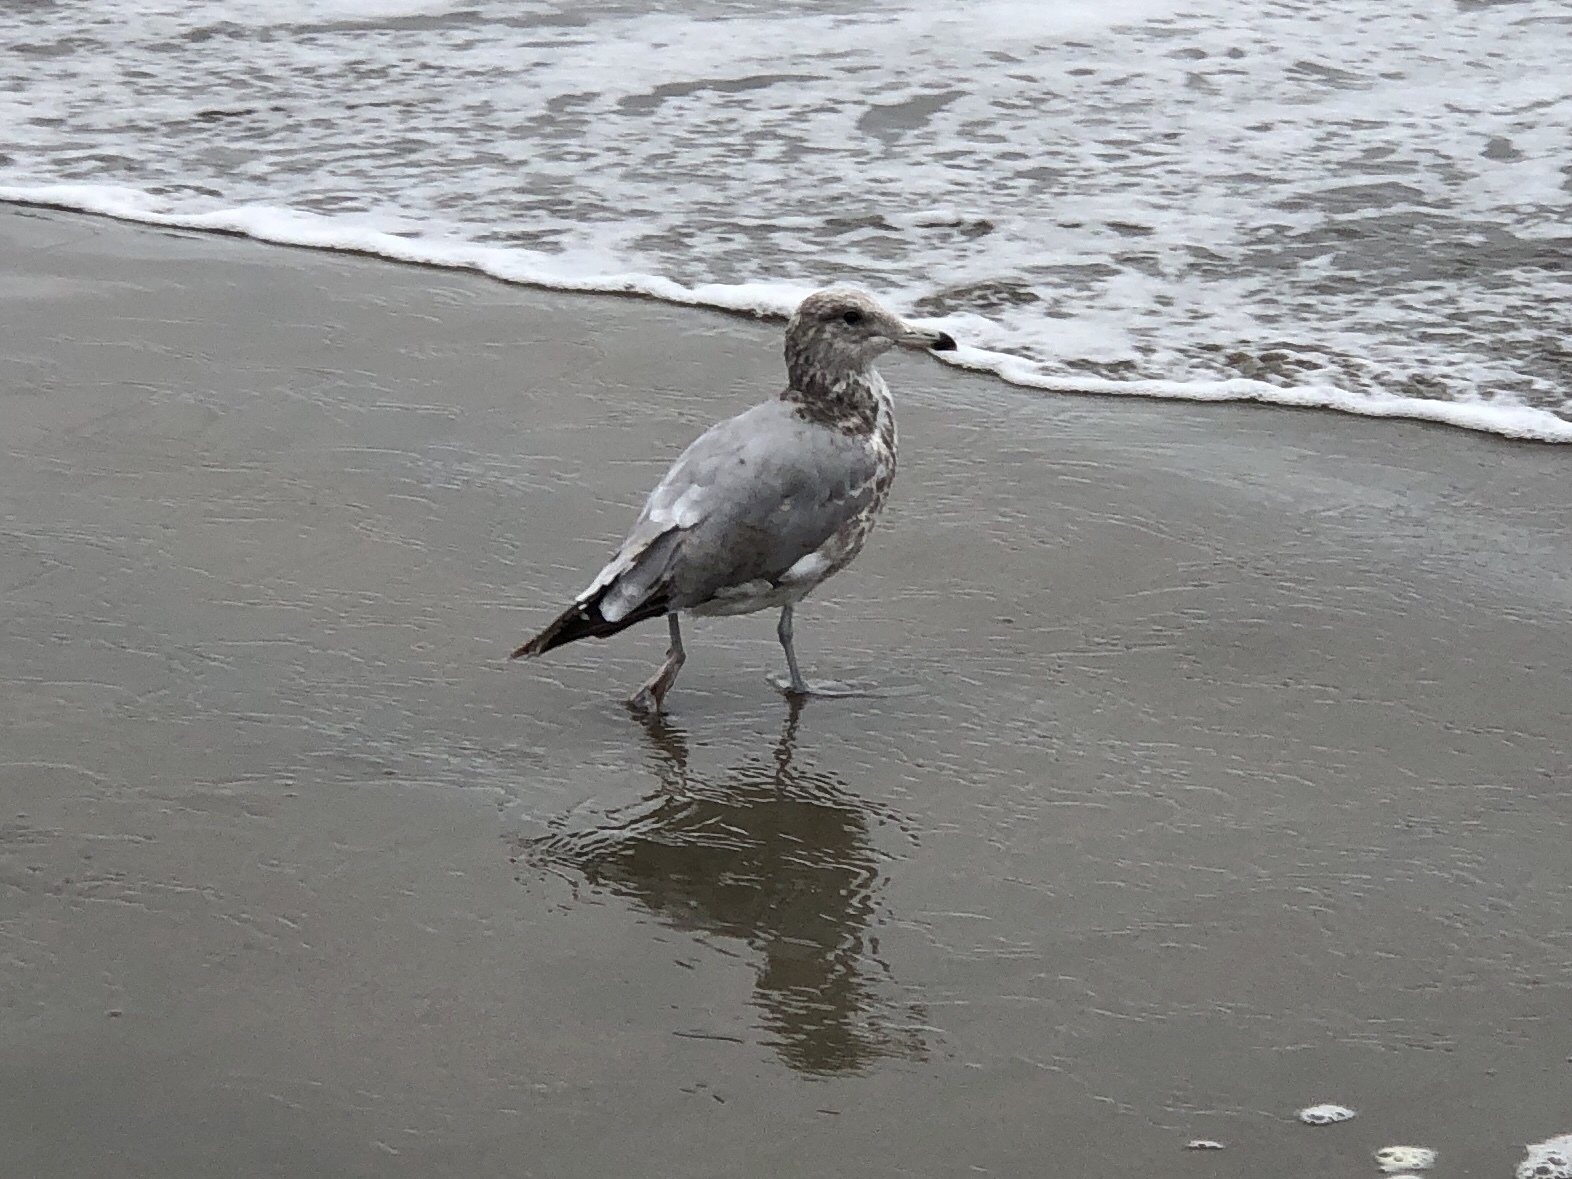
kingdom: Animalia
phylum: Chordata
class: Aves
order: Charadriiformes
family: Laridae
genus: Larus
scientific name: Larus californicus
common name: California gull
